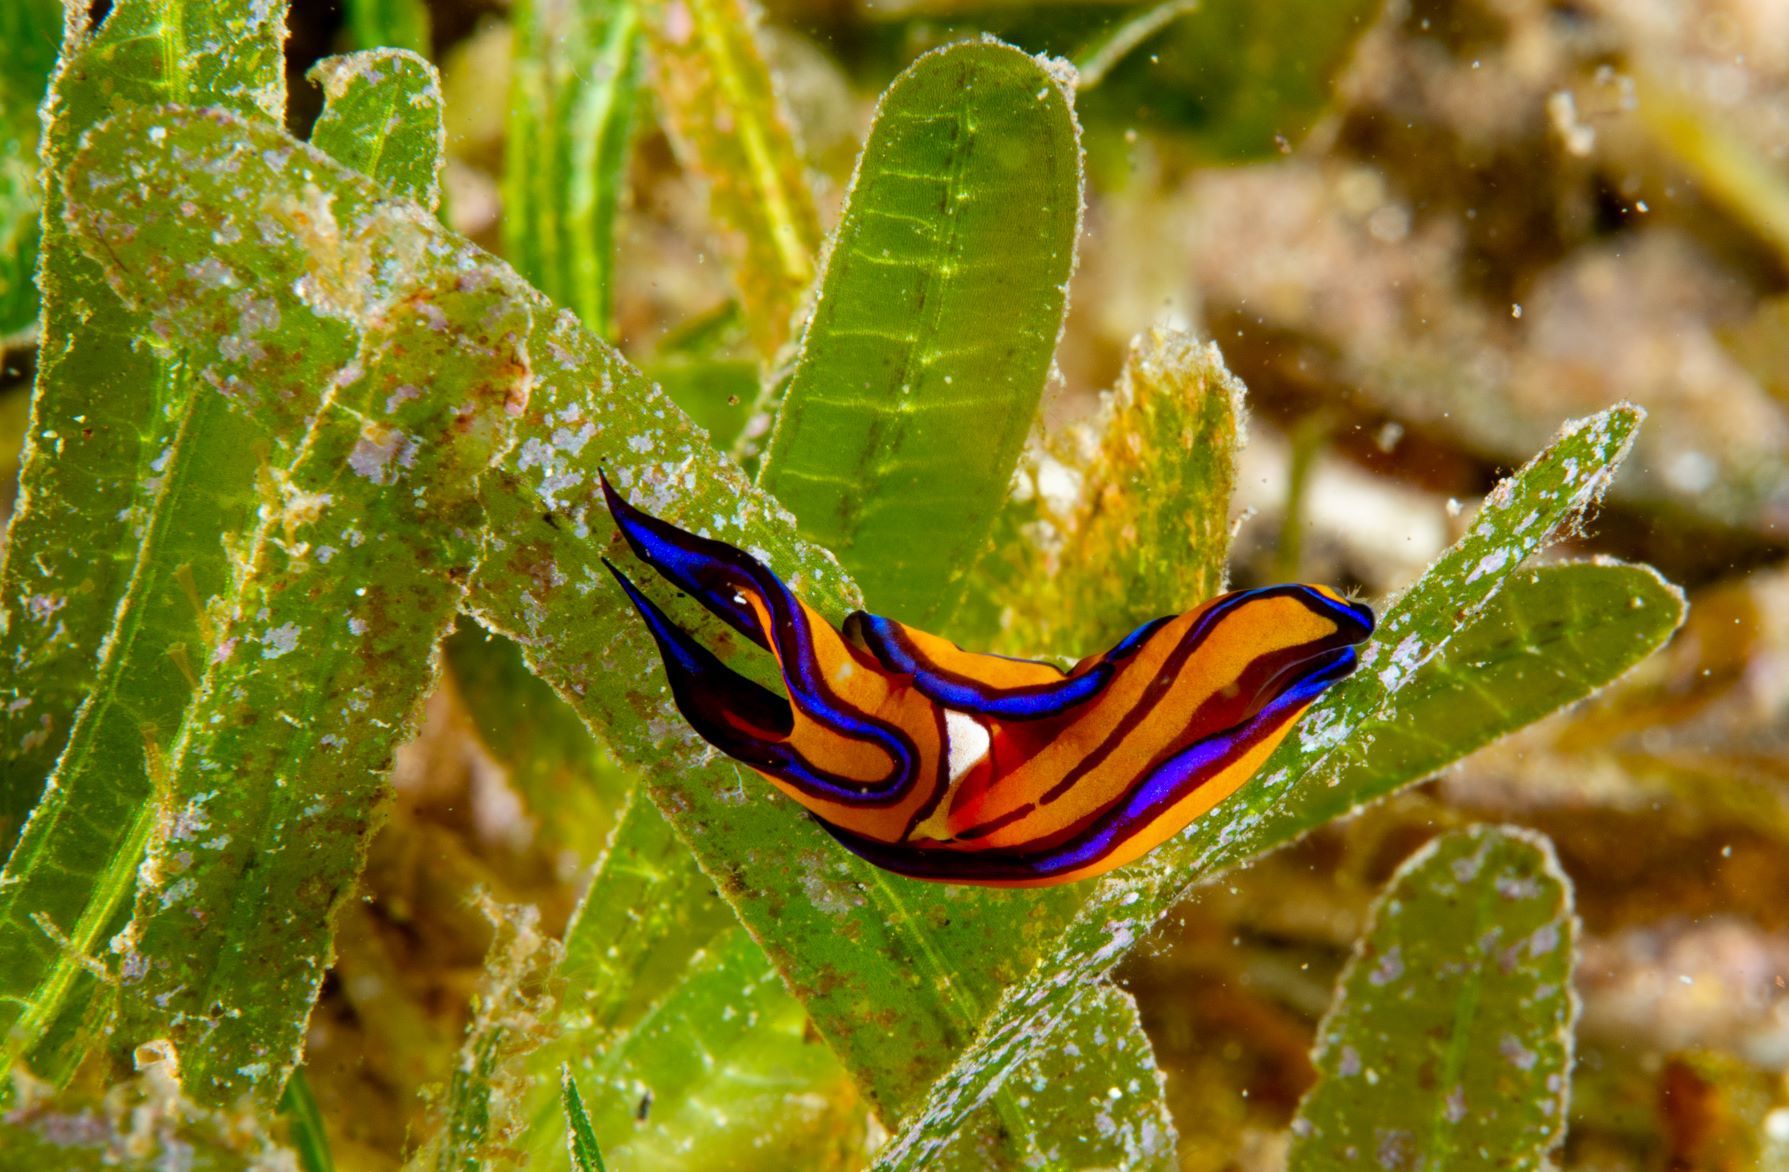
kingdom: Animalia
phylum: Mollusca
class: Gastropoda
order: Cephalaspidea
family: Aglajidae
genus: Chelidonura
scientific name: Chelidonura hirundinina
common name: Leech headshield slug
